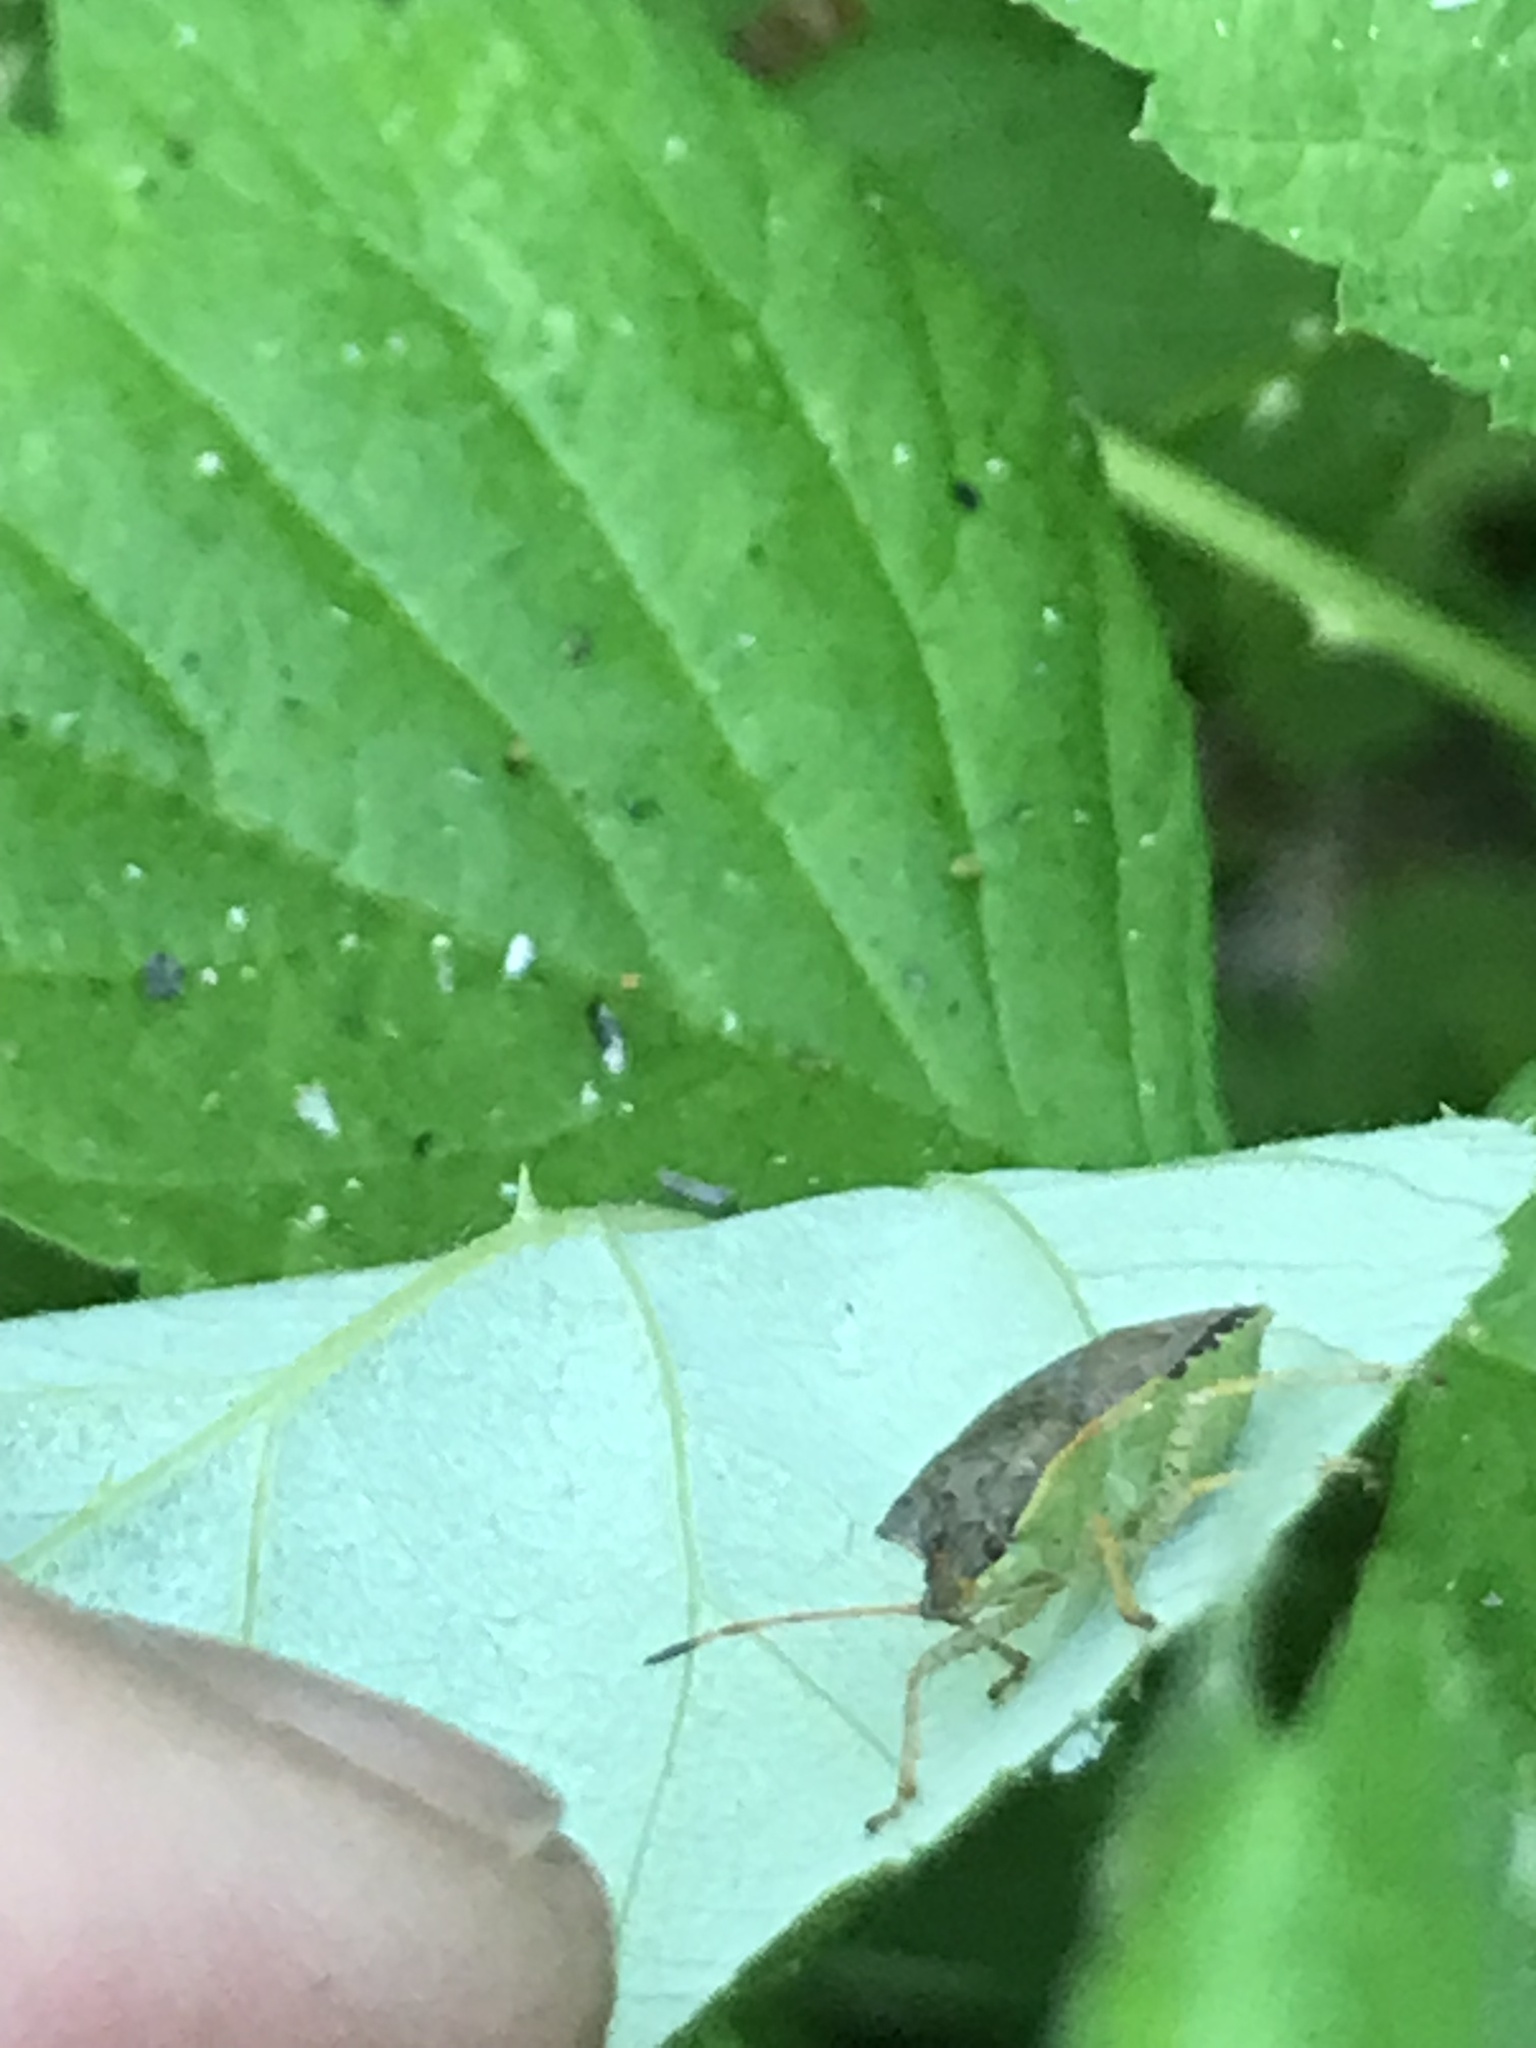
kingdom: Animalia
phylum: Arthropoda
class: Insecta
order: Hemiptera
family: Pentatomidae
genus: Euschistus
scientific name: Euschistus conspersus
